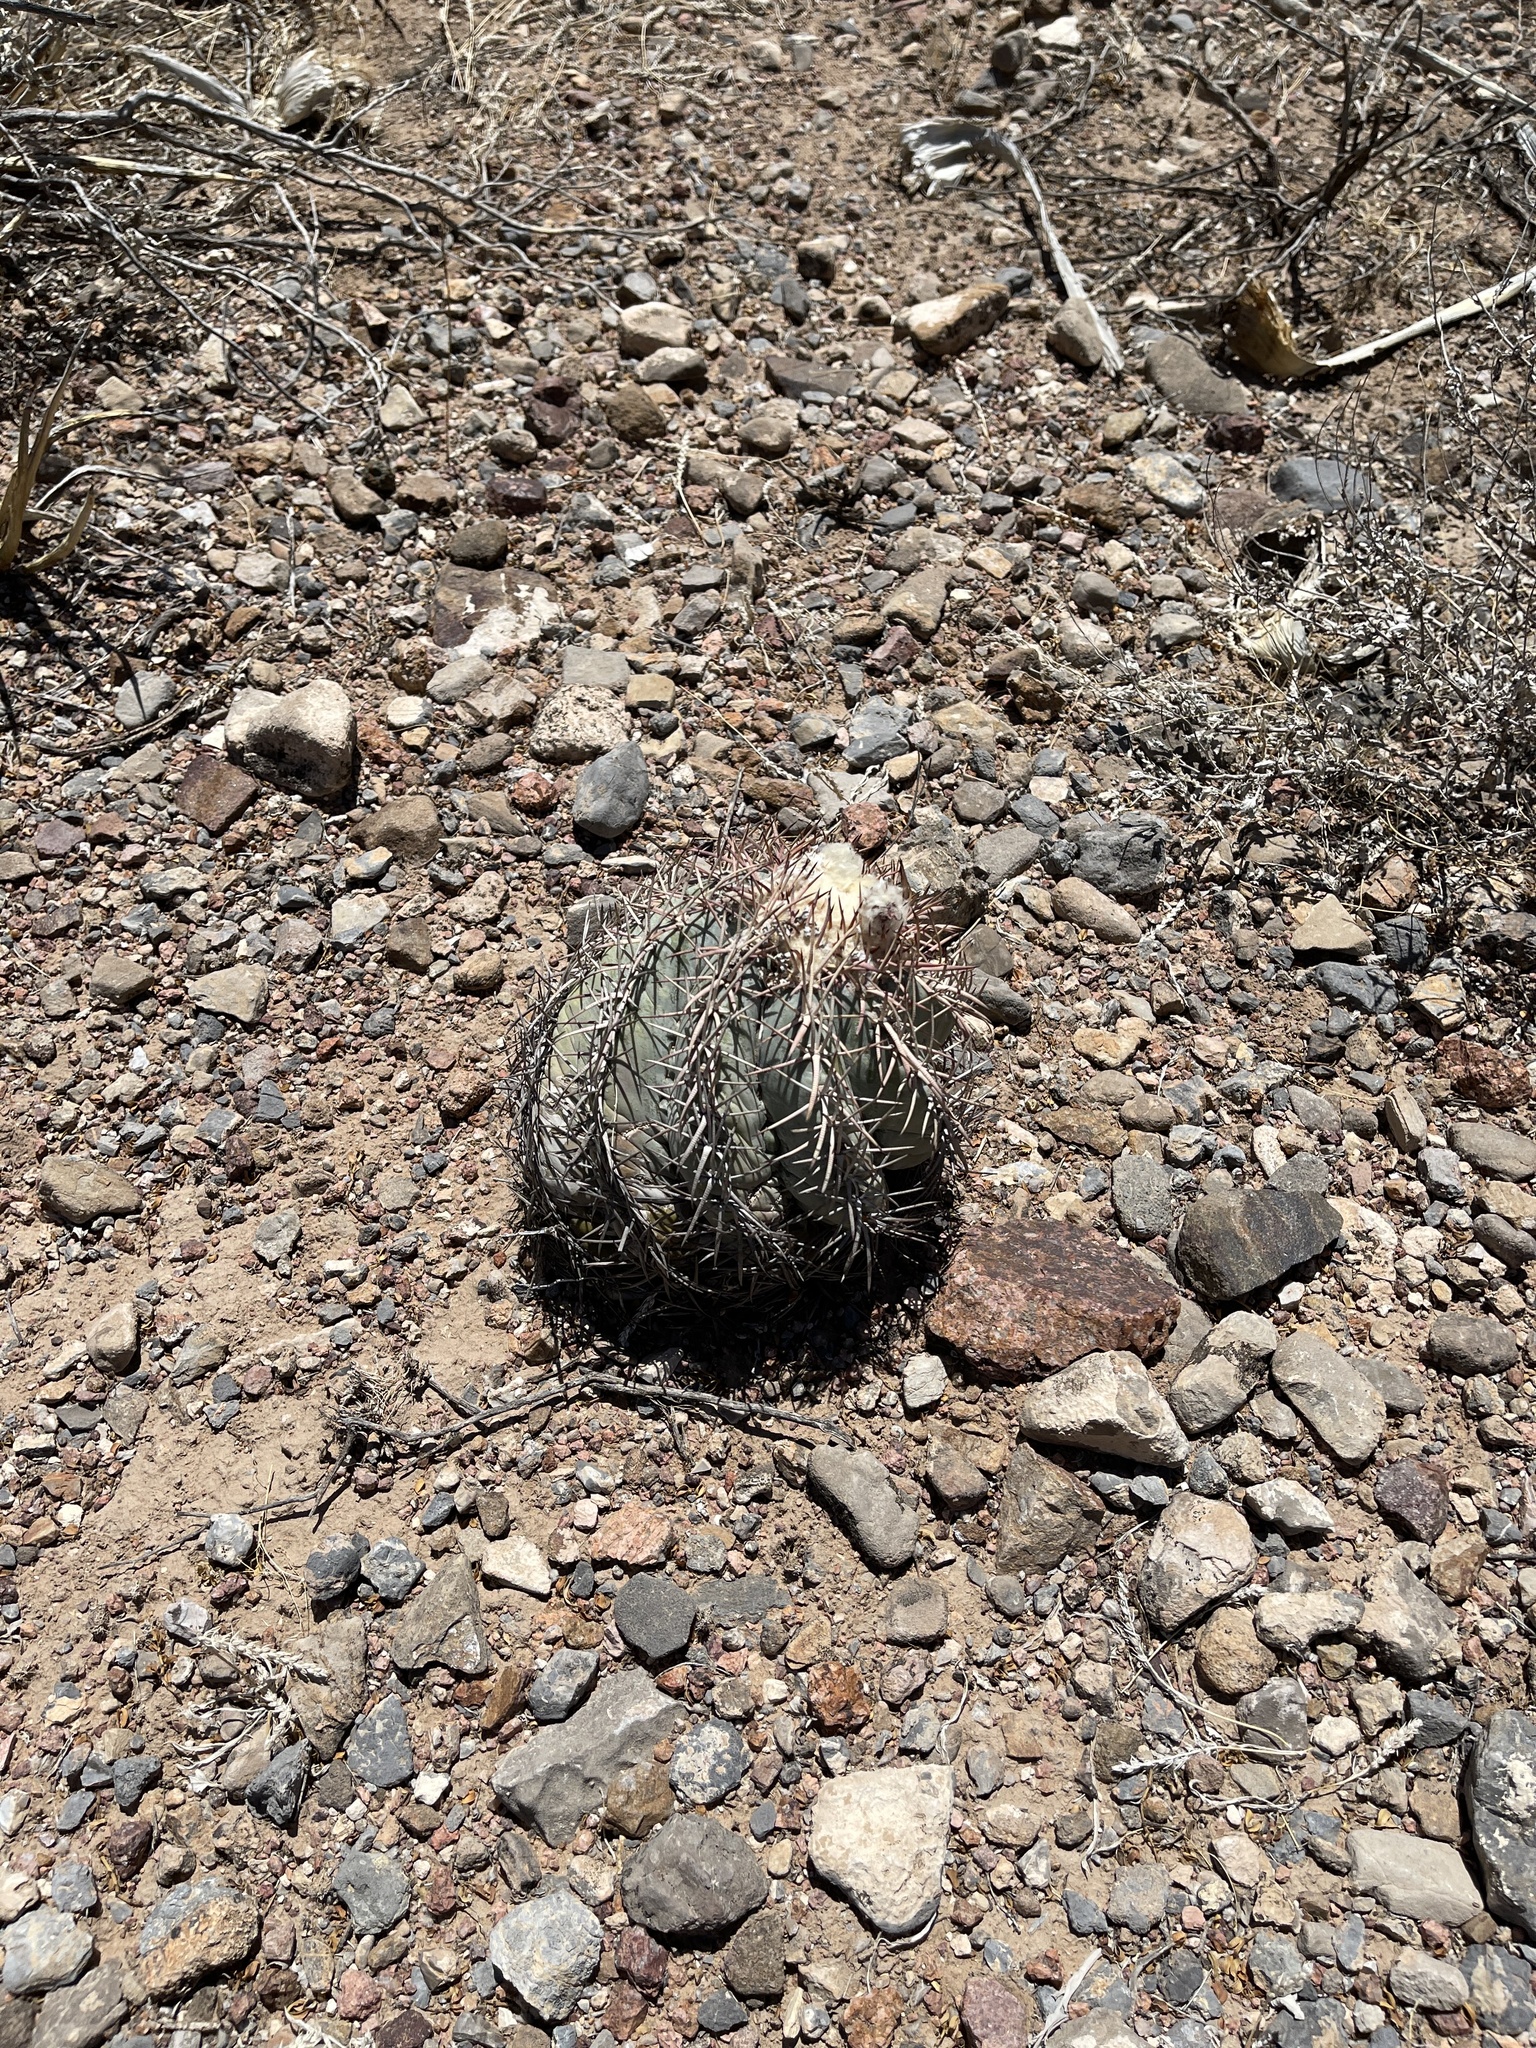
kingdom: Plantae
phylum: Tracheophyta
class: Magnoliopsida
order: Caryophyllales
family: Cactaceae
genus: Echinocactus
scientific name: Echinocactus horizonthalonius
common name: Devilshead
